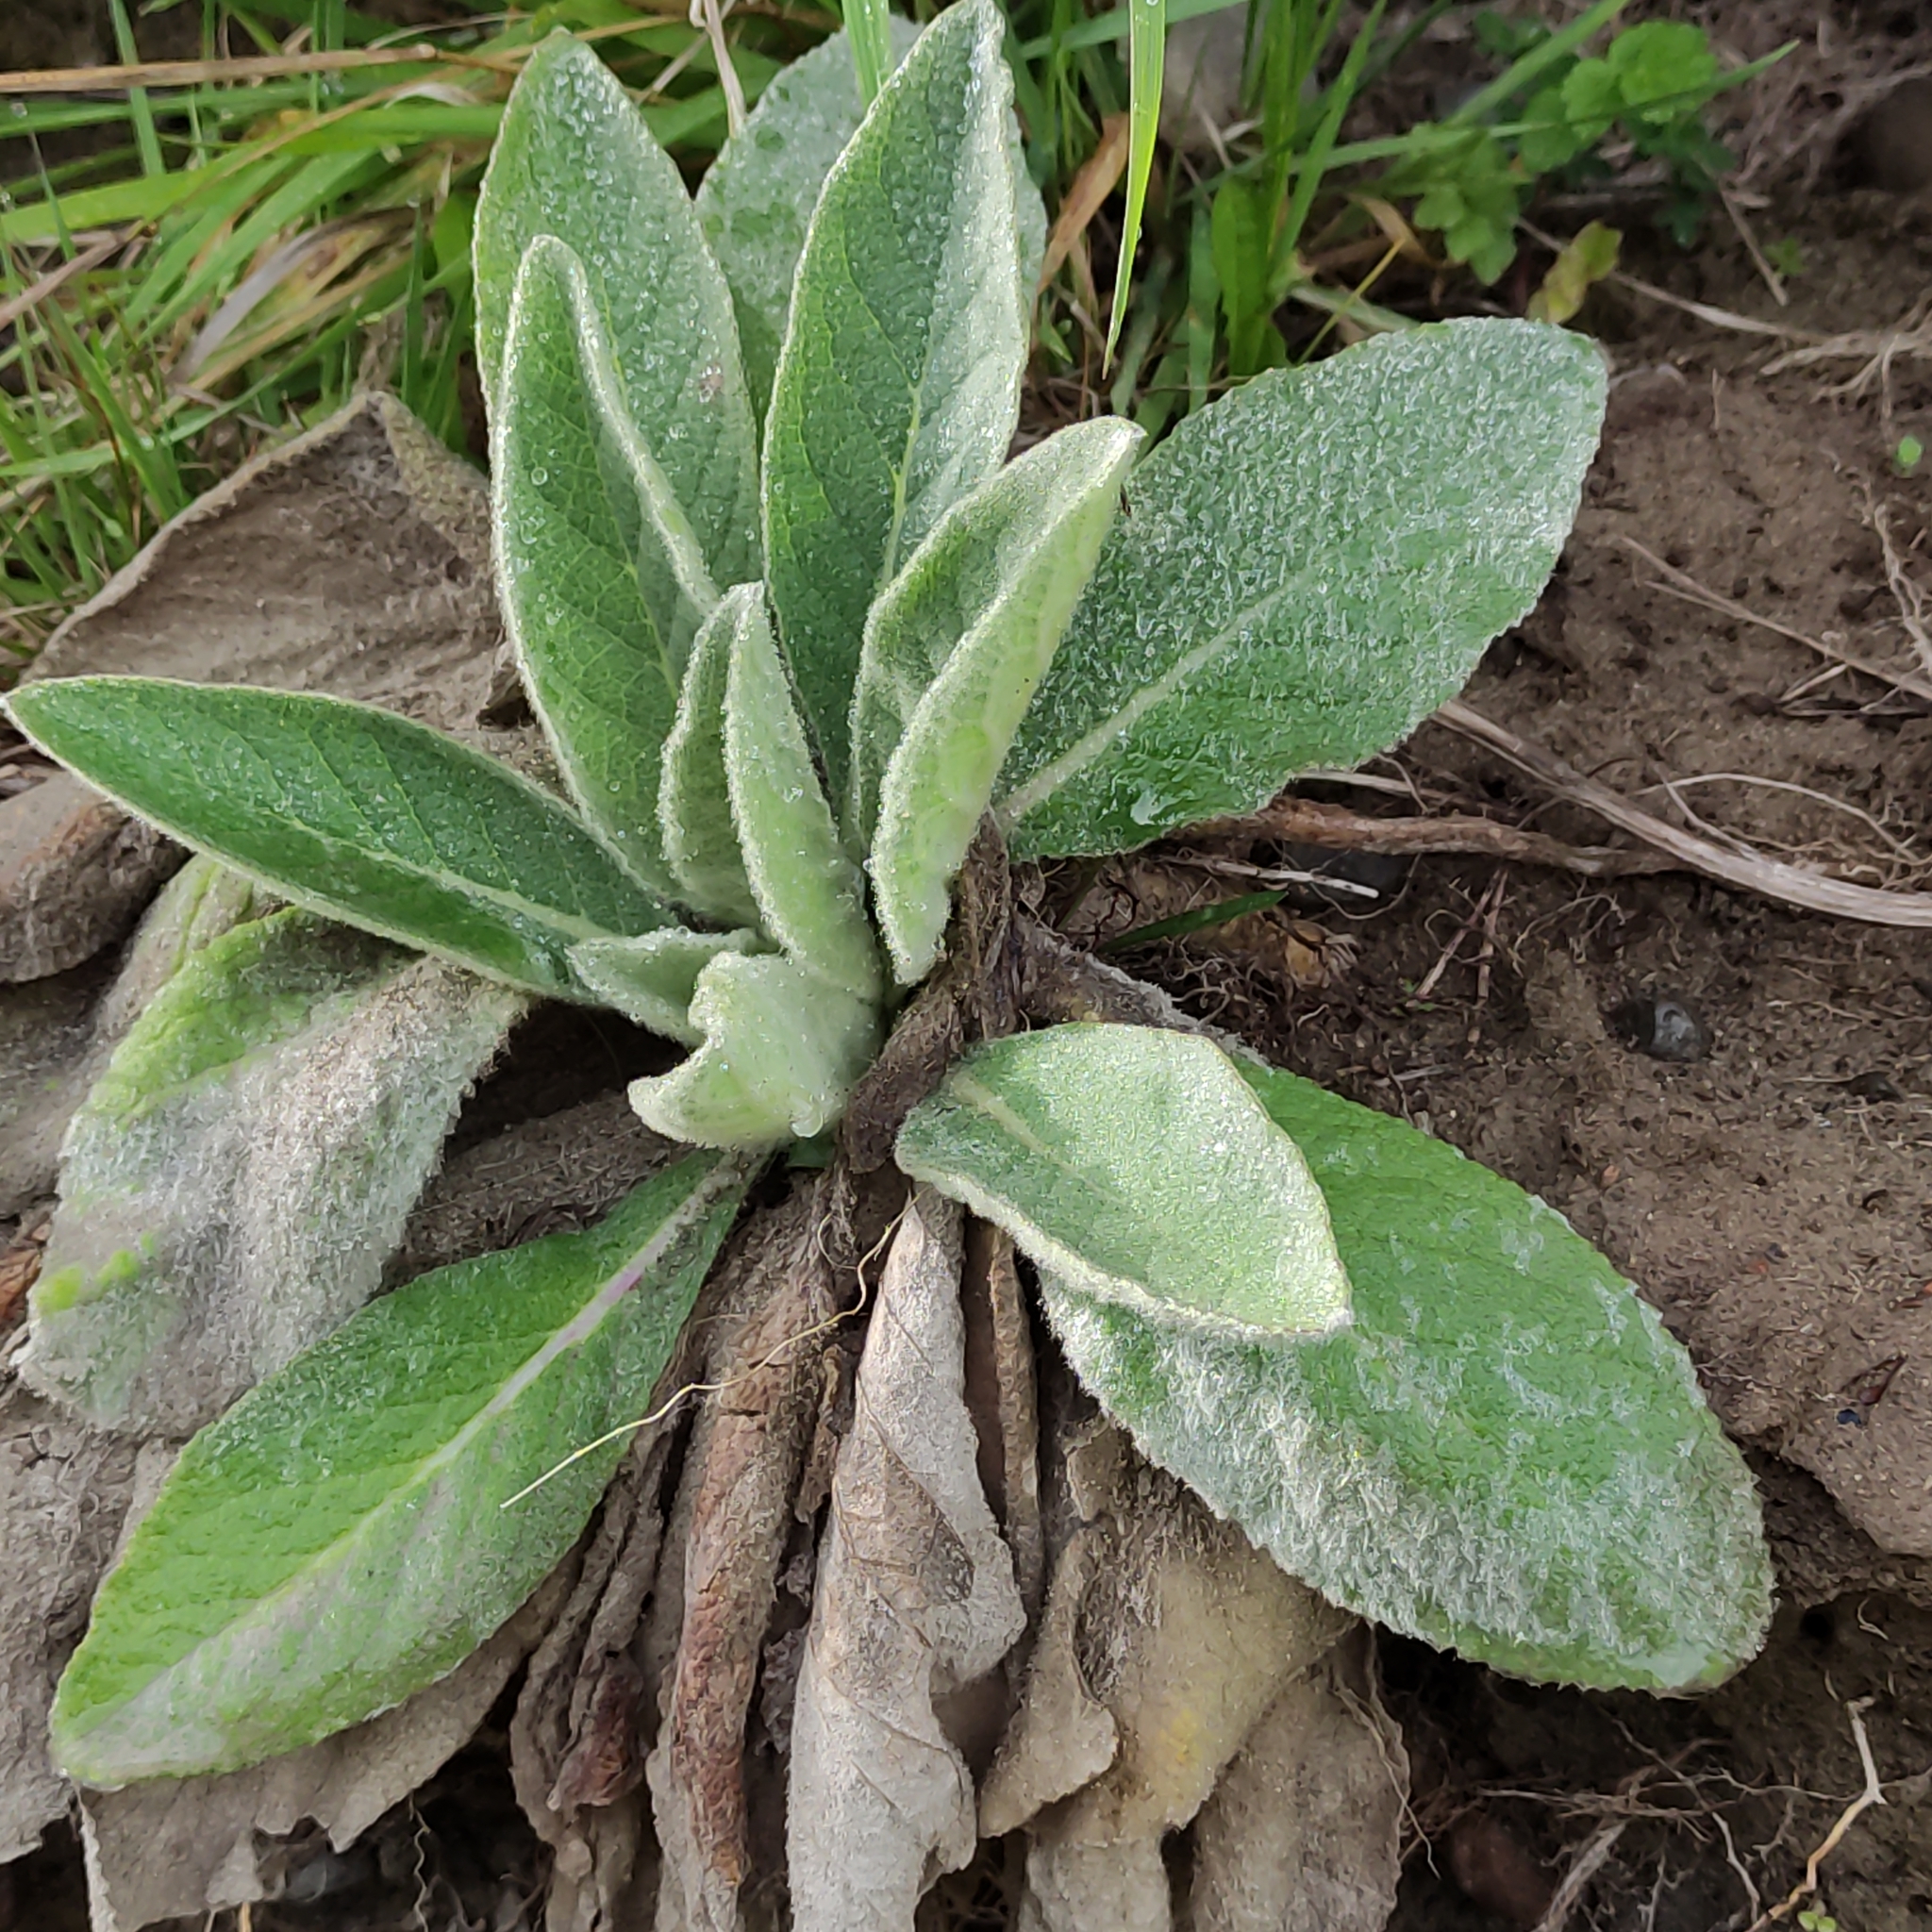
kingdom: Plantae
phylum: Tracheophyta
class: Magnoliopsida
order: Lamiales
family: Scrophulariaceae
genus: Verbascum
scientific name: Verbascum thapsus
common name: Common mullein
